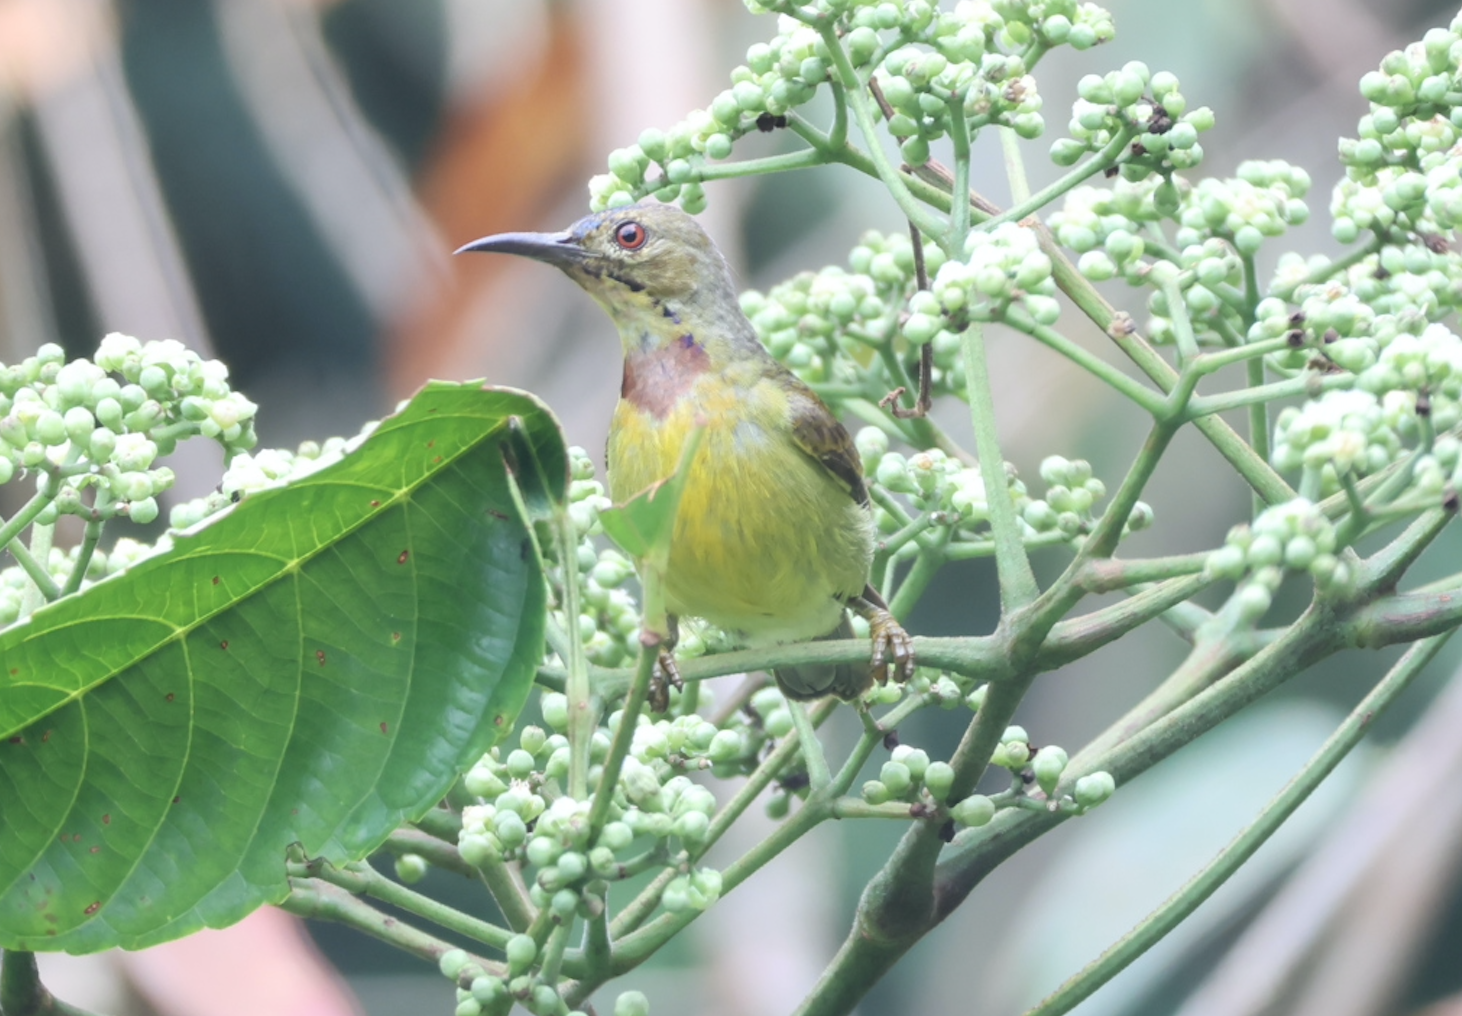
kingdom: Animalia
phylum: Chordata
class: Aves
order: Passeriformes
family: Nectariniidae
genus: Anthreptes
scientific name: Anthreptes malacensis
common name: Brown-throated sunbird
